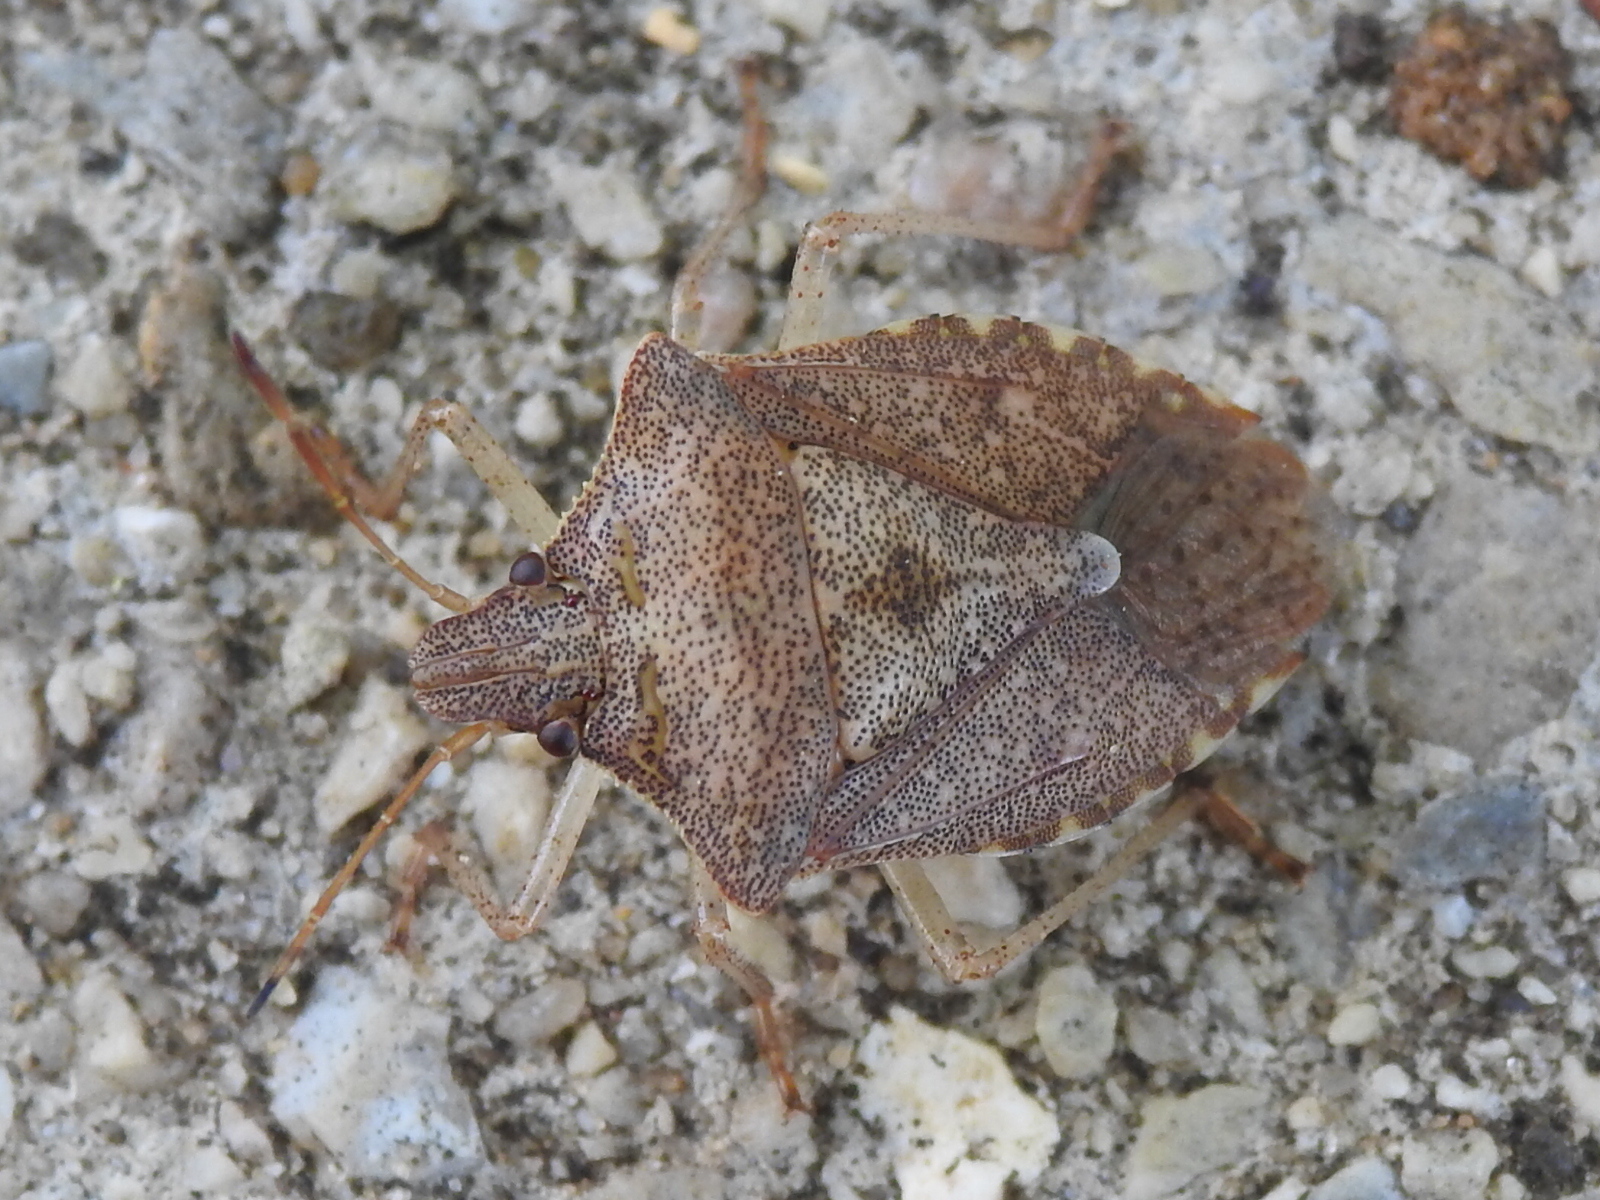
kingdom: Animalia
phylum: Arthropoda
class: Insecta
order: Hemiptera
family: Pentatomidae
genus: Euschistus
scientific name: Euschistus servus
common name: Brown stink bug
